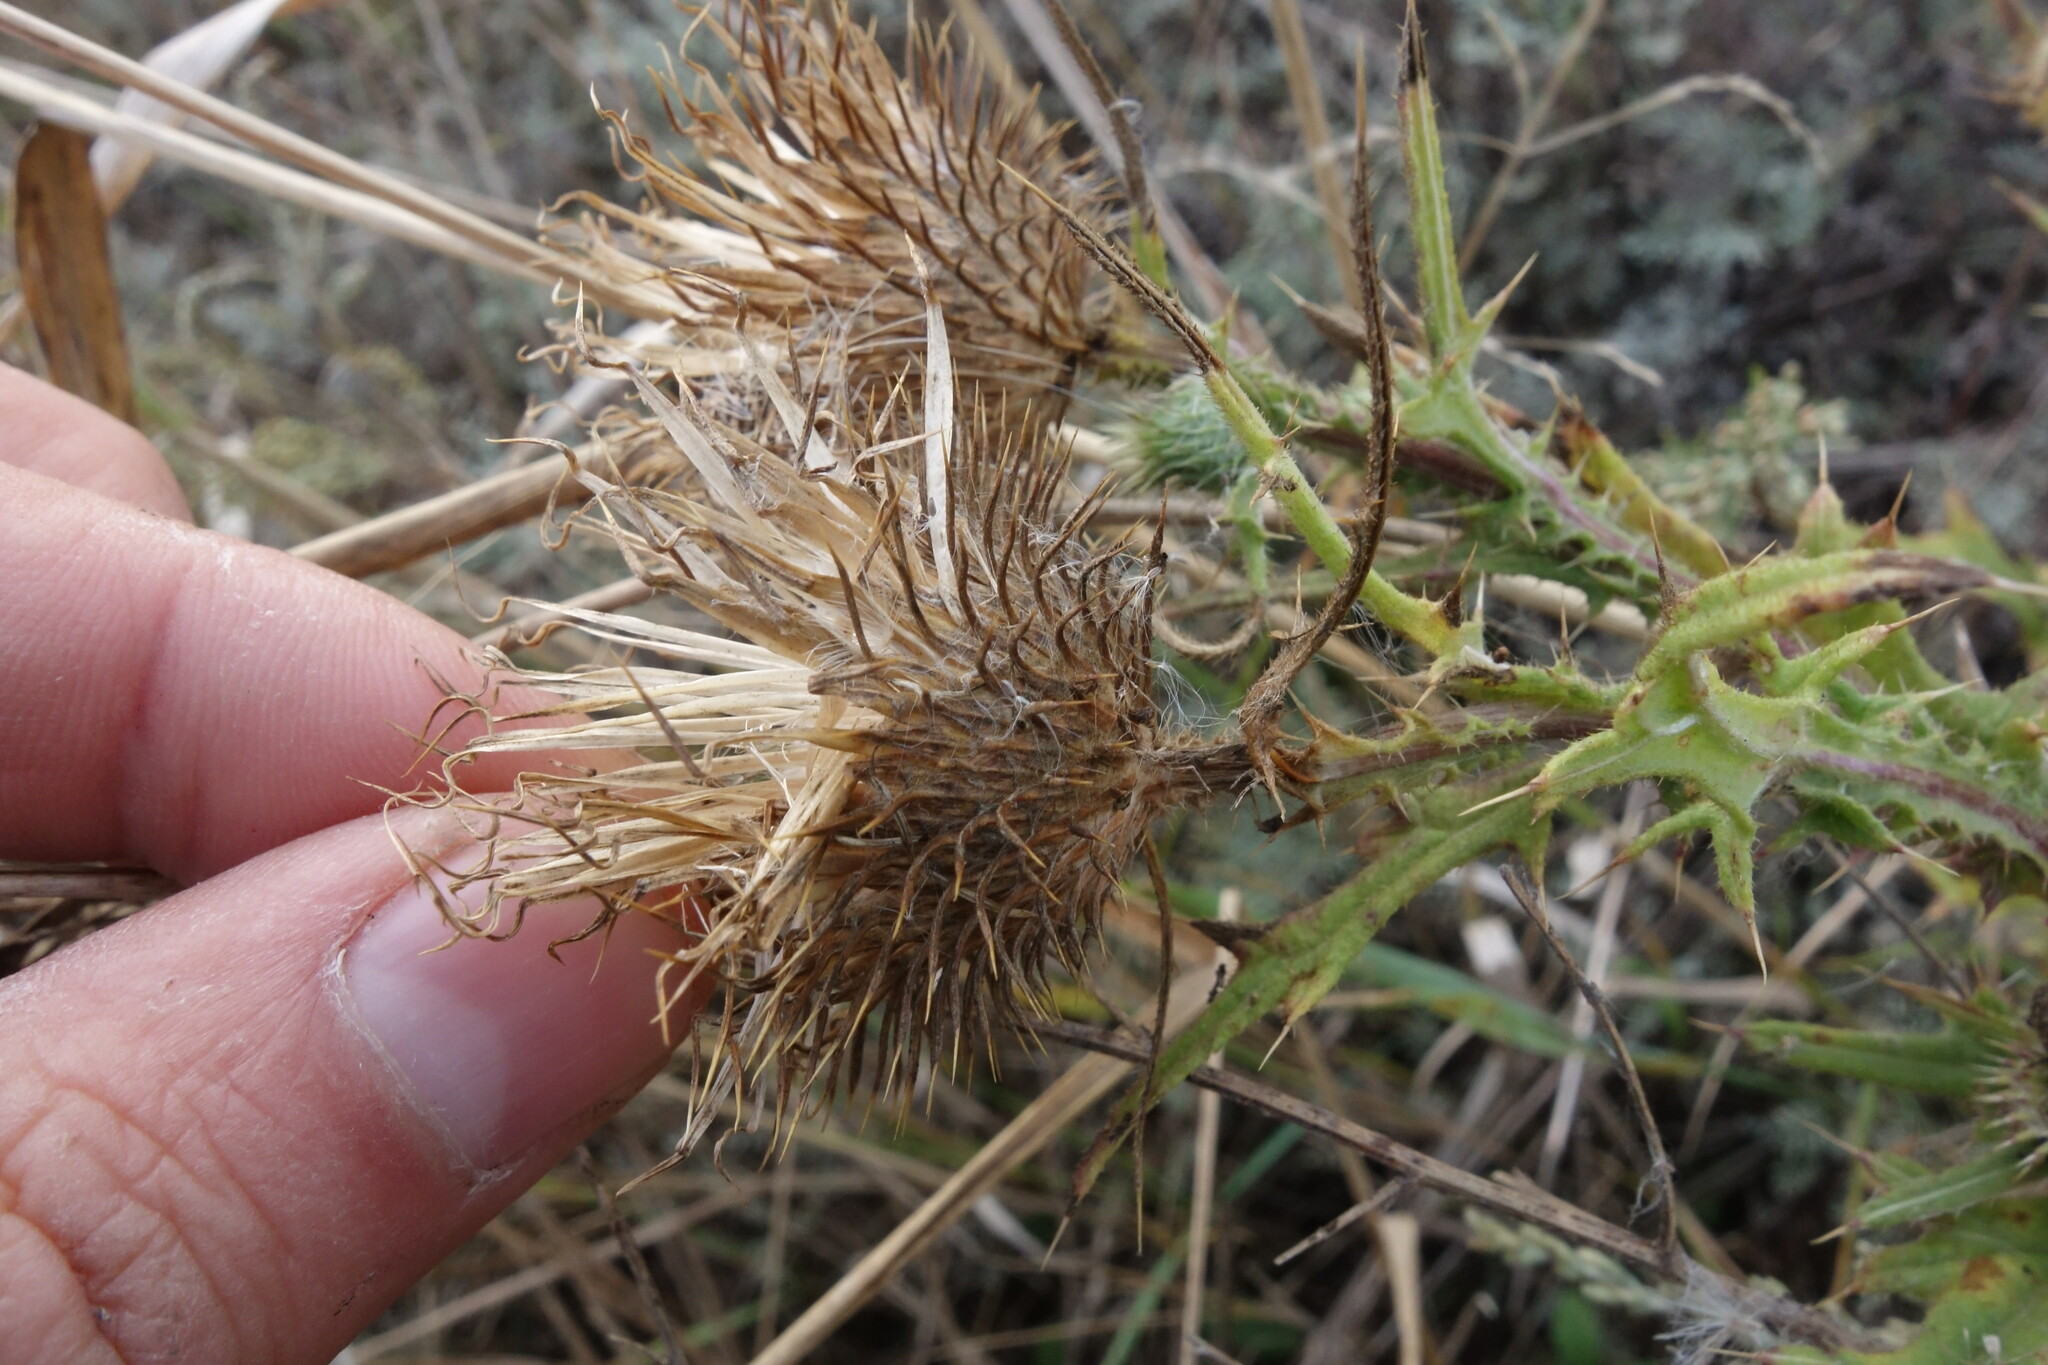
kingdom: Plantae
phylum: Tracheophyta
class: Magnoliopsida
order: Asterales
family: Asteraceae
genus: Cirsium
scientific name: Cirsium vulgare
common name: Bull thistle
